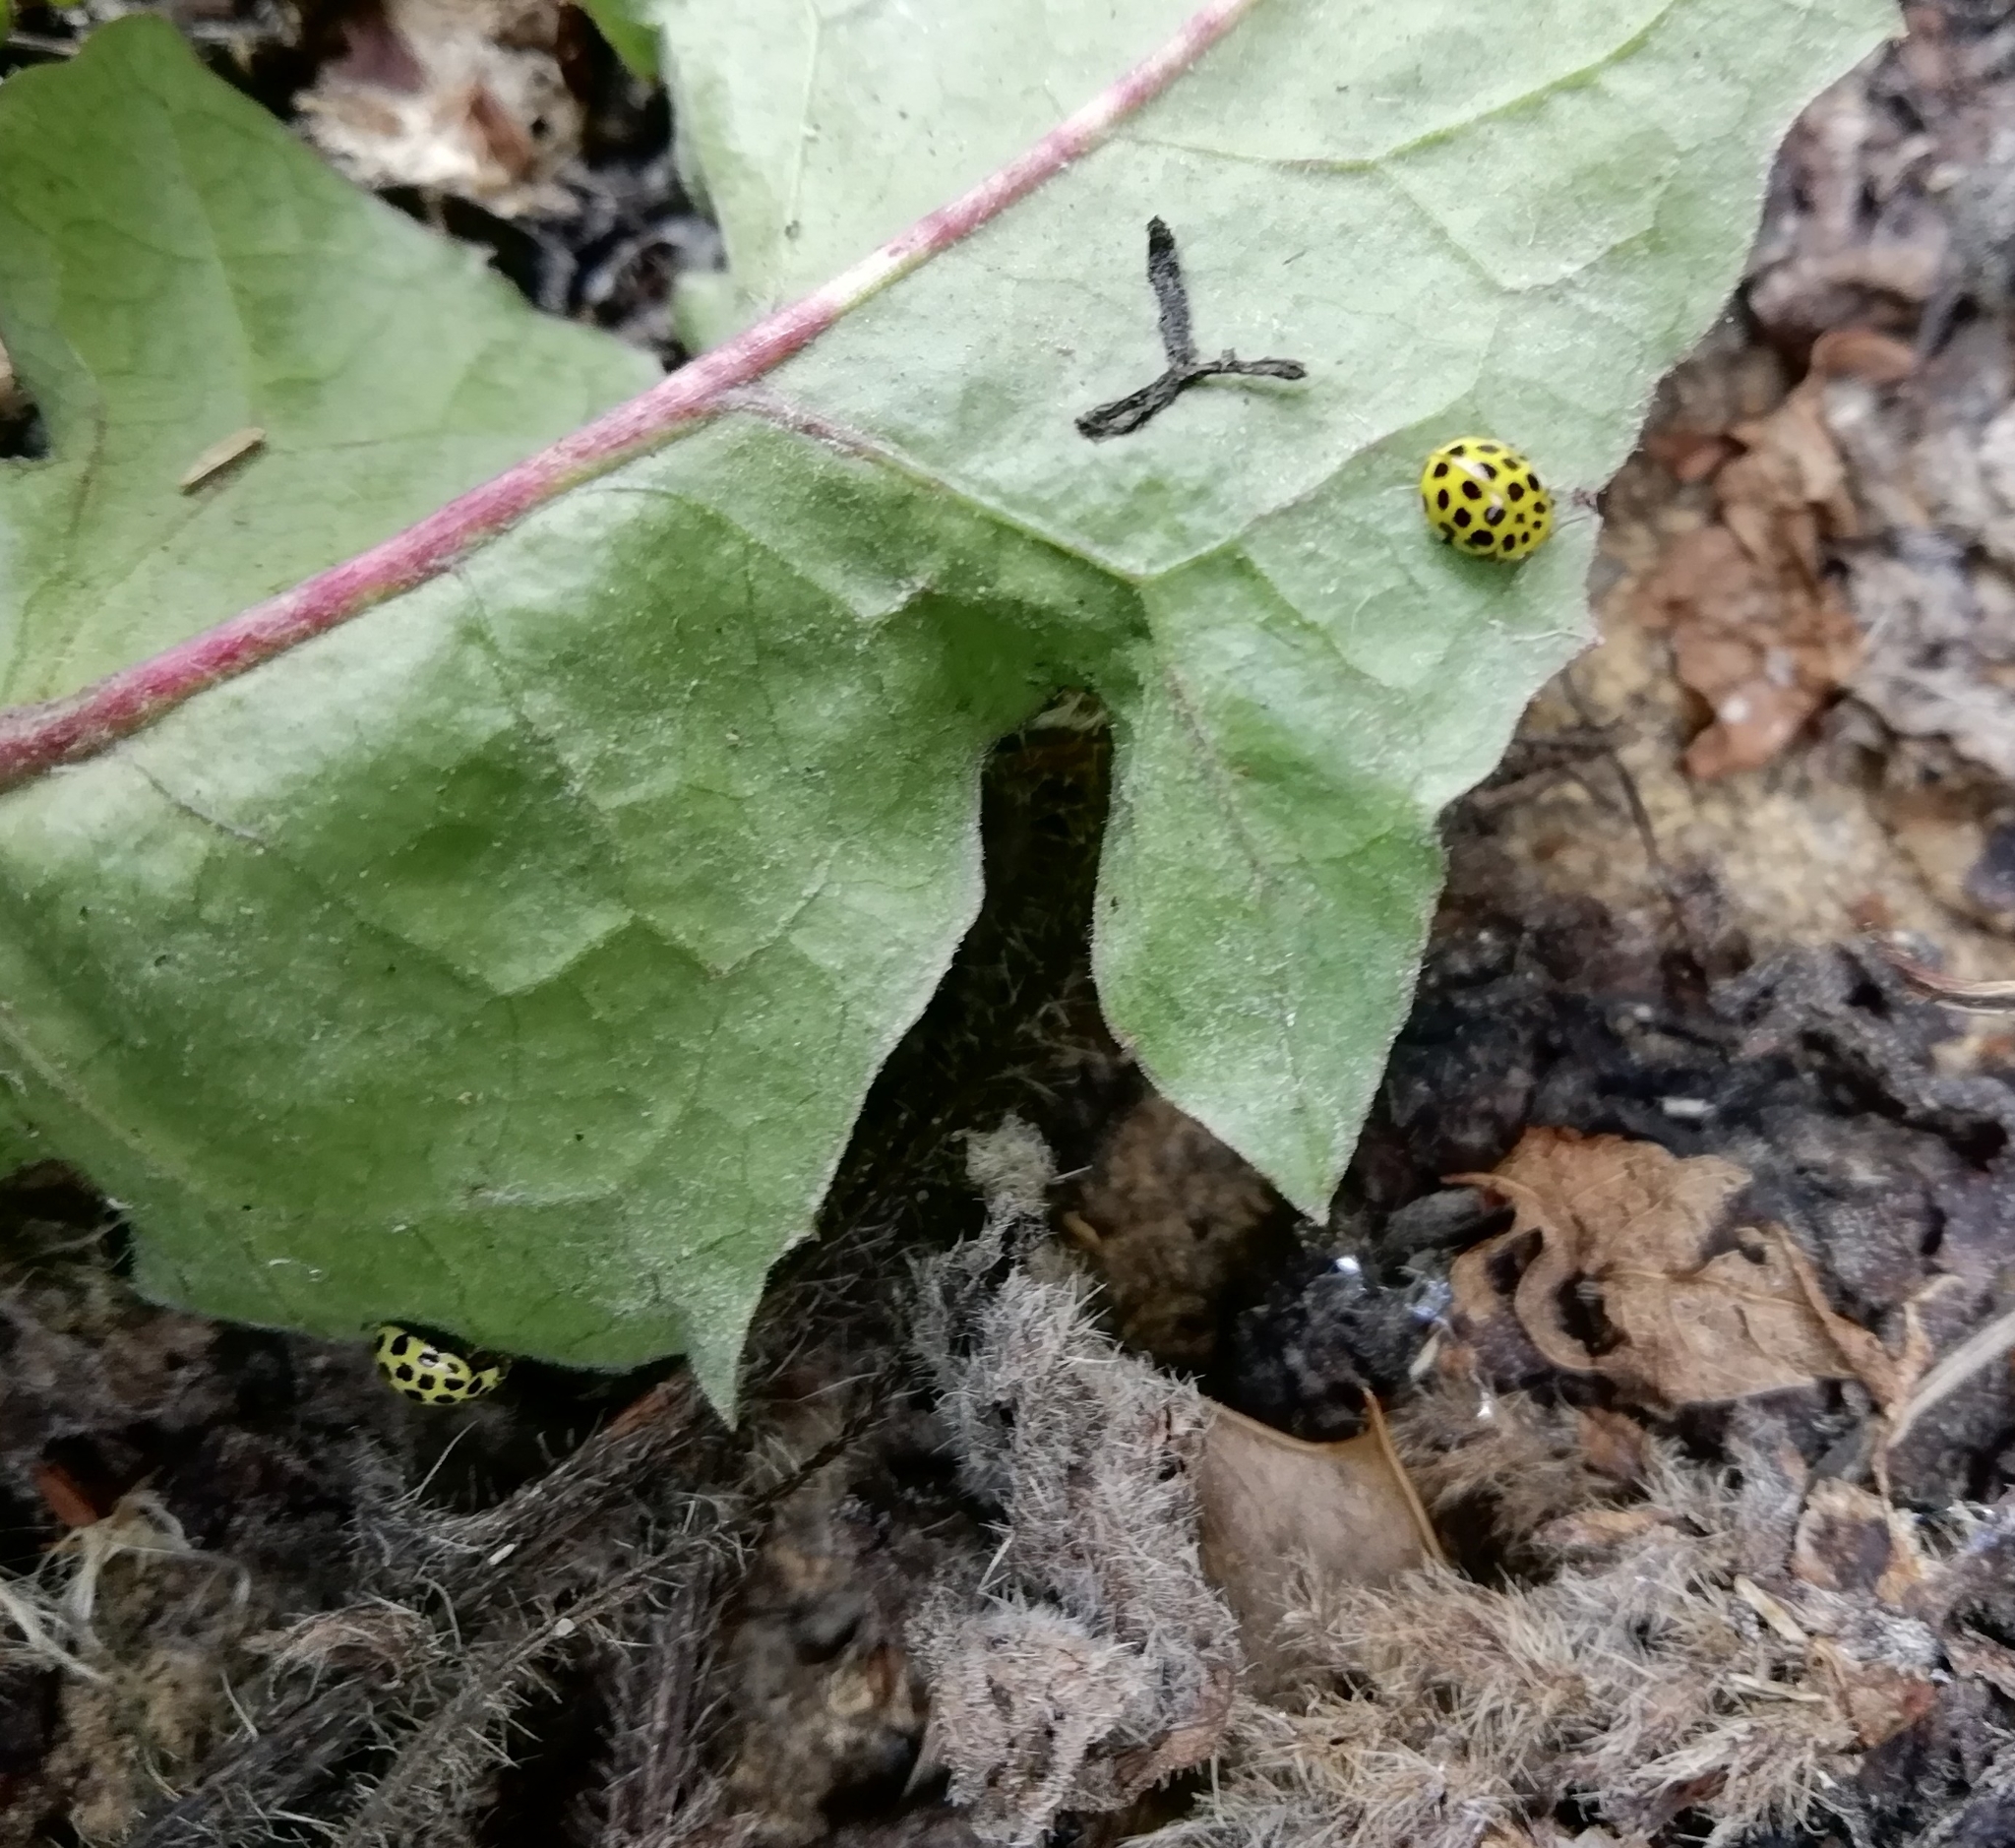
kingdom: Animalia
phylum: Arthropoda
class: Insecta
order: Coleoptera
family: Coccinellidae
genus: Psyllobora
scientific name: Psyllobora vigintiduopunctata
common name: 22-spot ladybird
